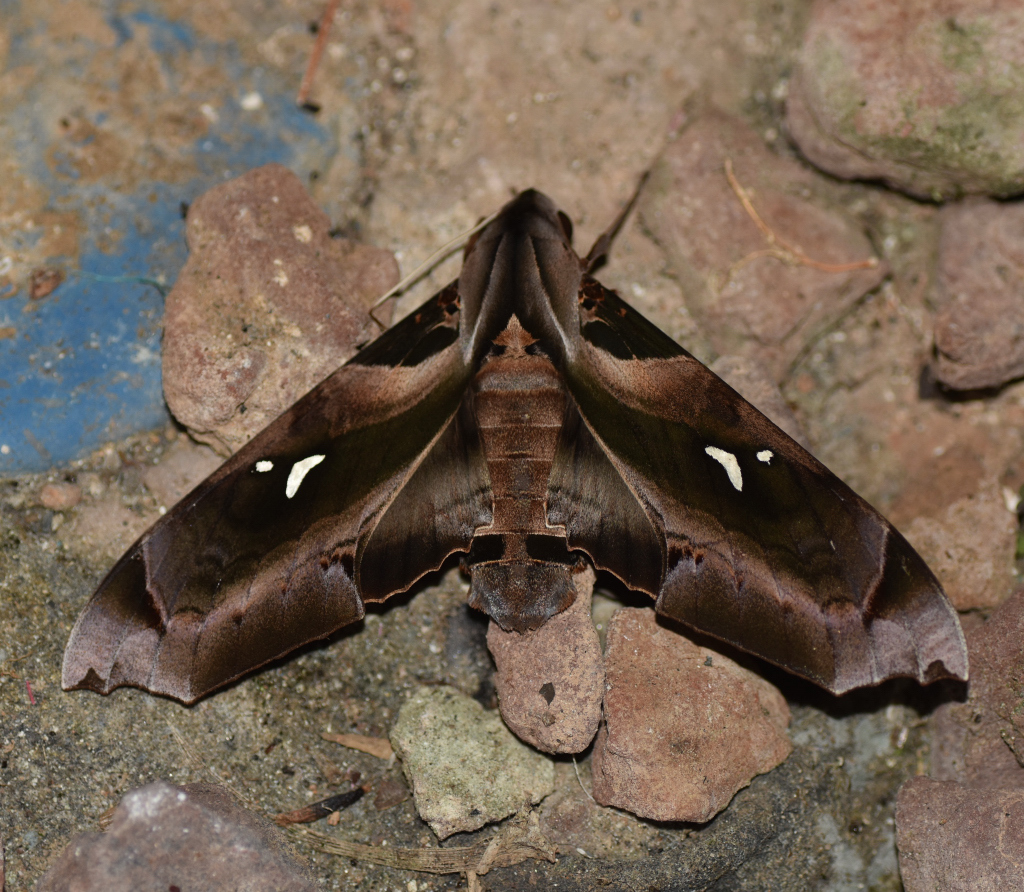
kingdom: Animalia
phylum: Arthropoda
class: Insecta
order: Lepidoptera
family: Sphingidae
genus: Madoryx
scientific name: Madoryx plutonius
